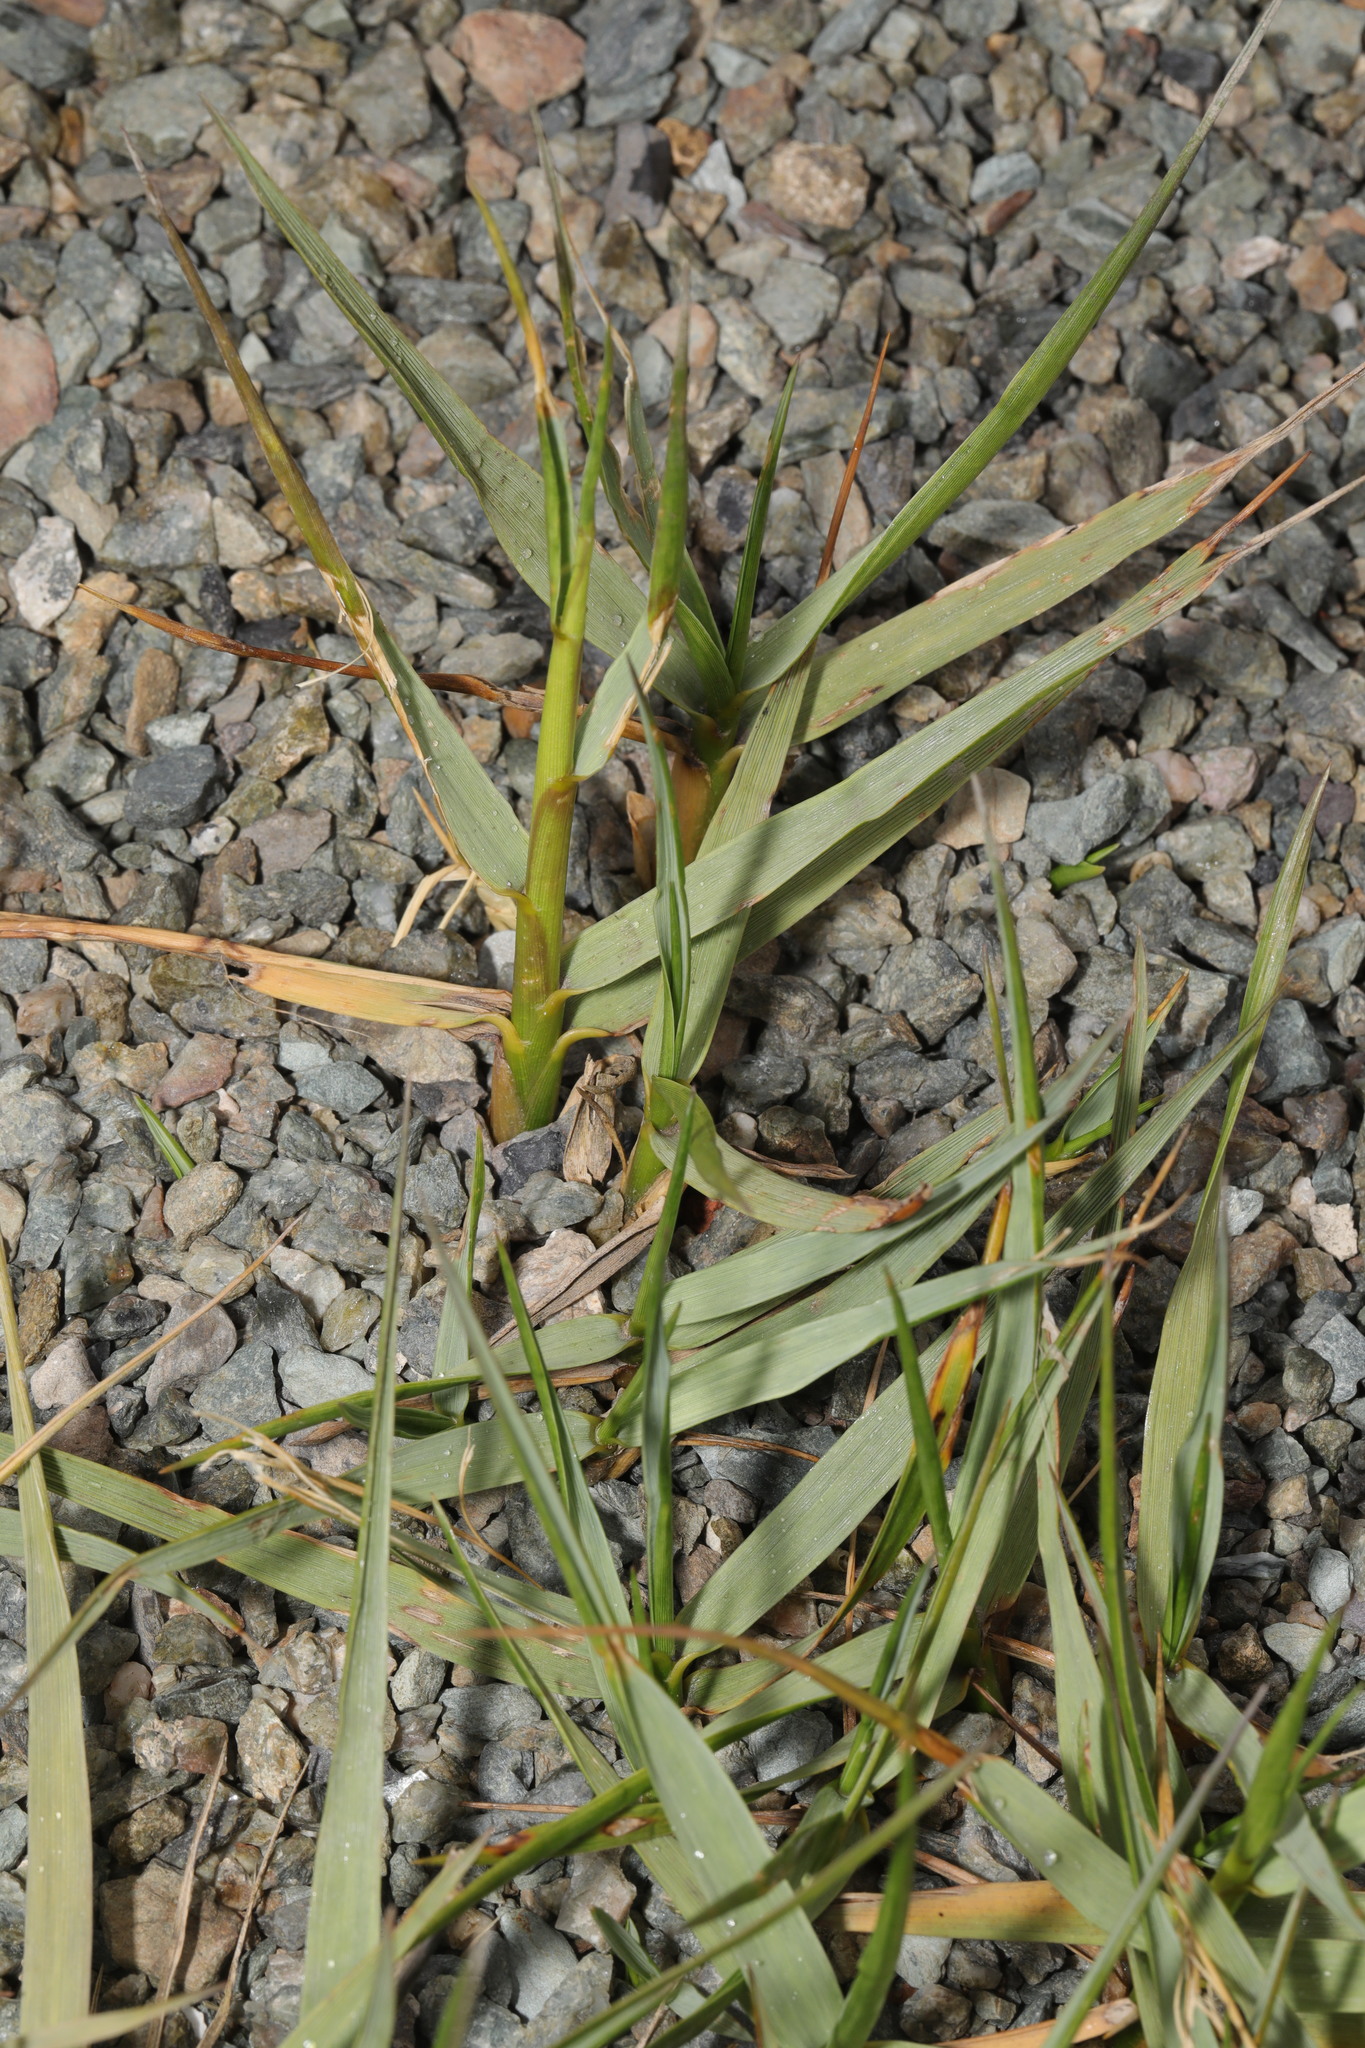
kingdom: Plantae
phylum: Tracheophyta
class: Liliopsida
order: Poales
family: Poaceae
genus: Sporobolus
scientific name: Sporobolus anglicus
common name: English cordgrass
